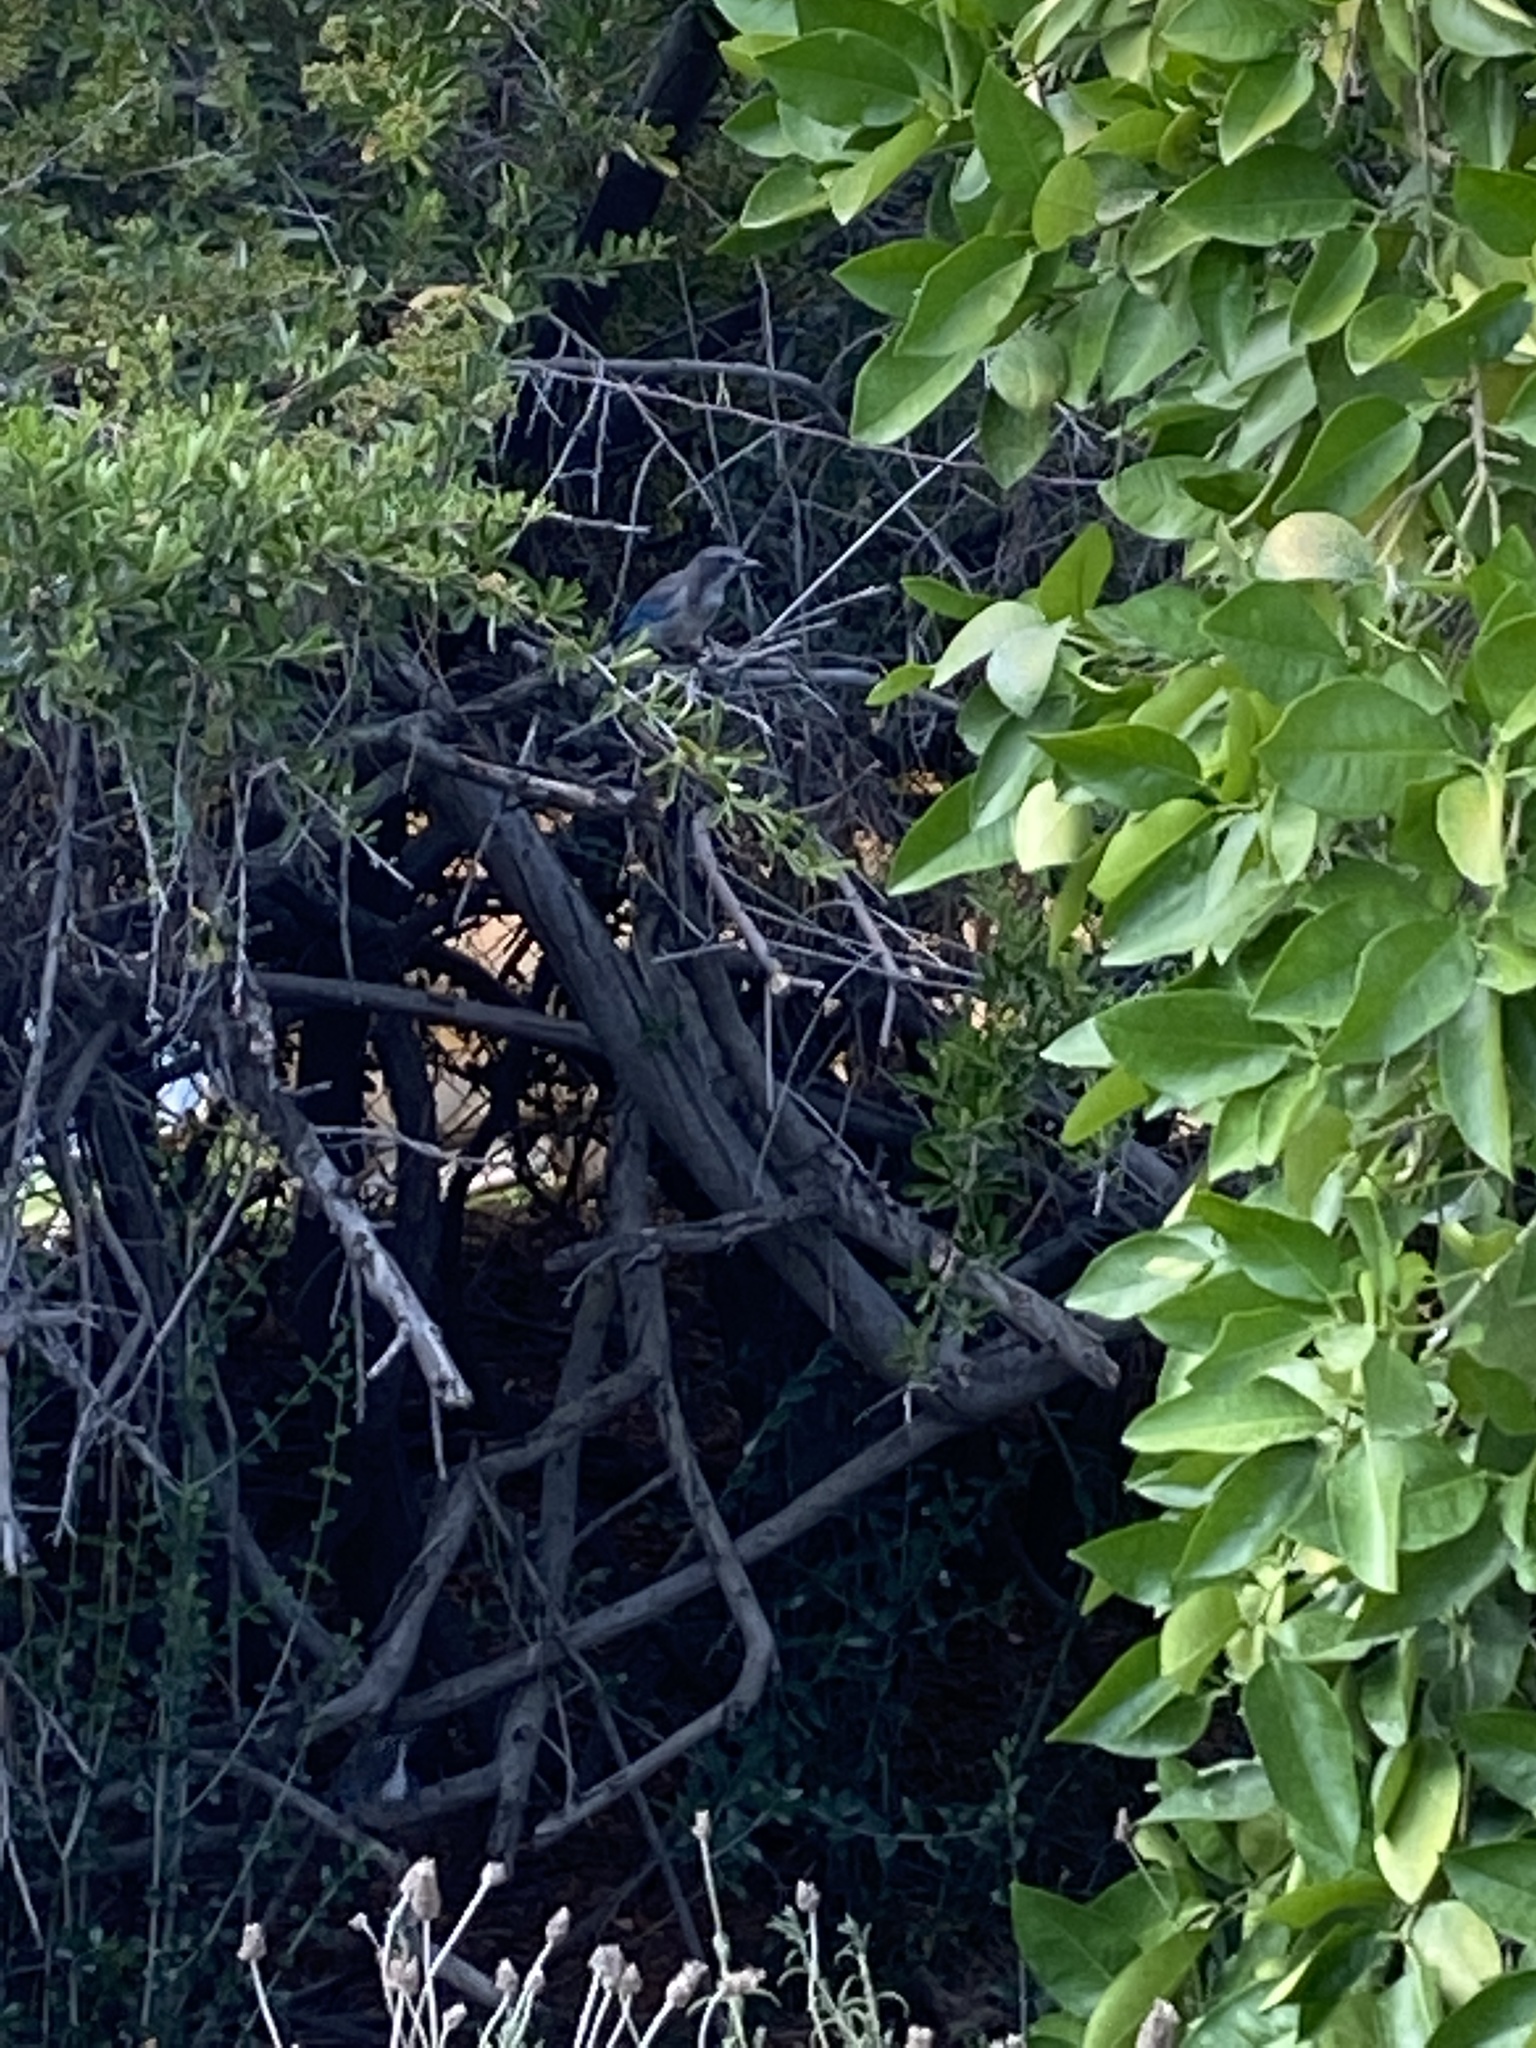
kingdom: Animalia
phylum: Chordata
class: Aves
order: Passeriformes
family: Corvidae
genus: Aphelocoma
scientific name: Aphelocoma californica
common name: California scrub-jay
